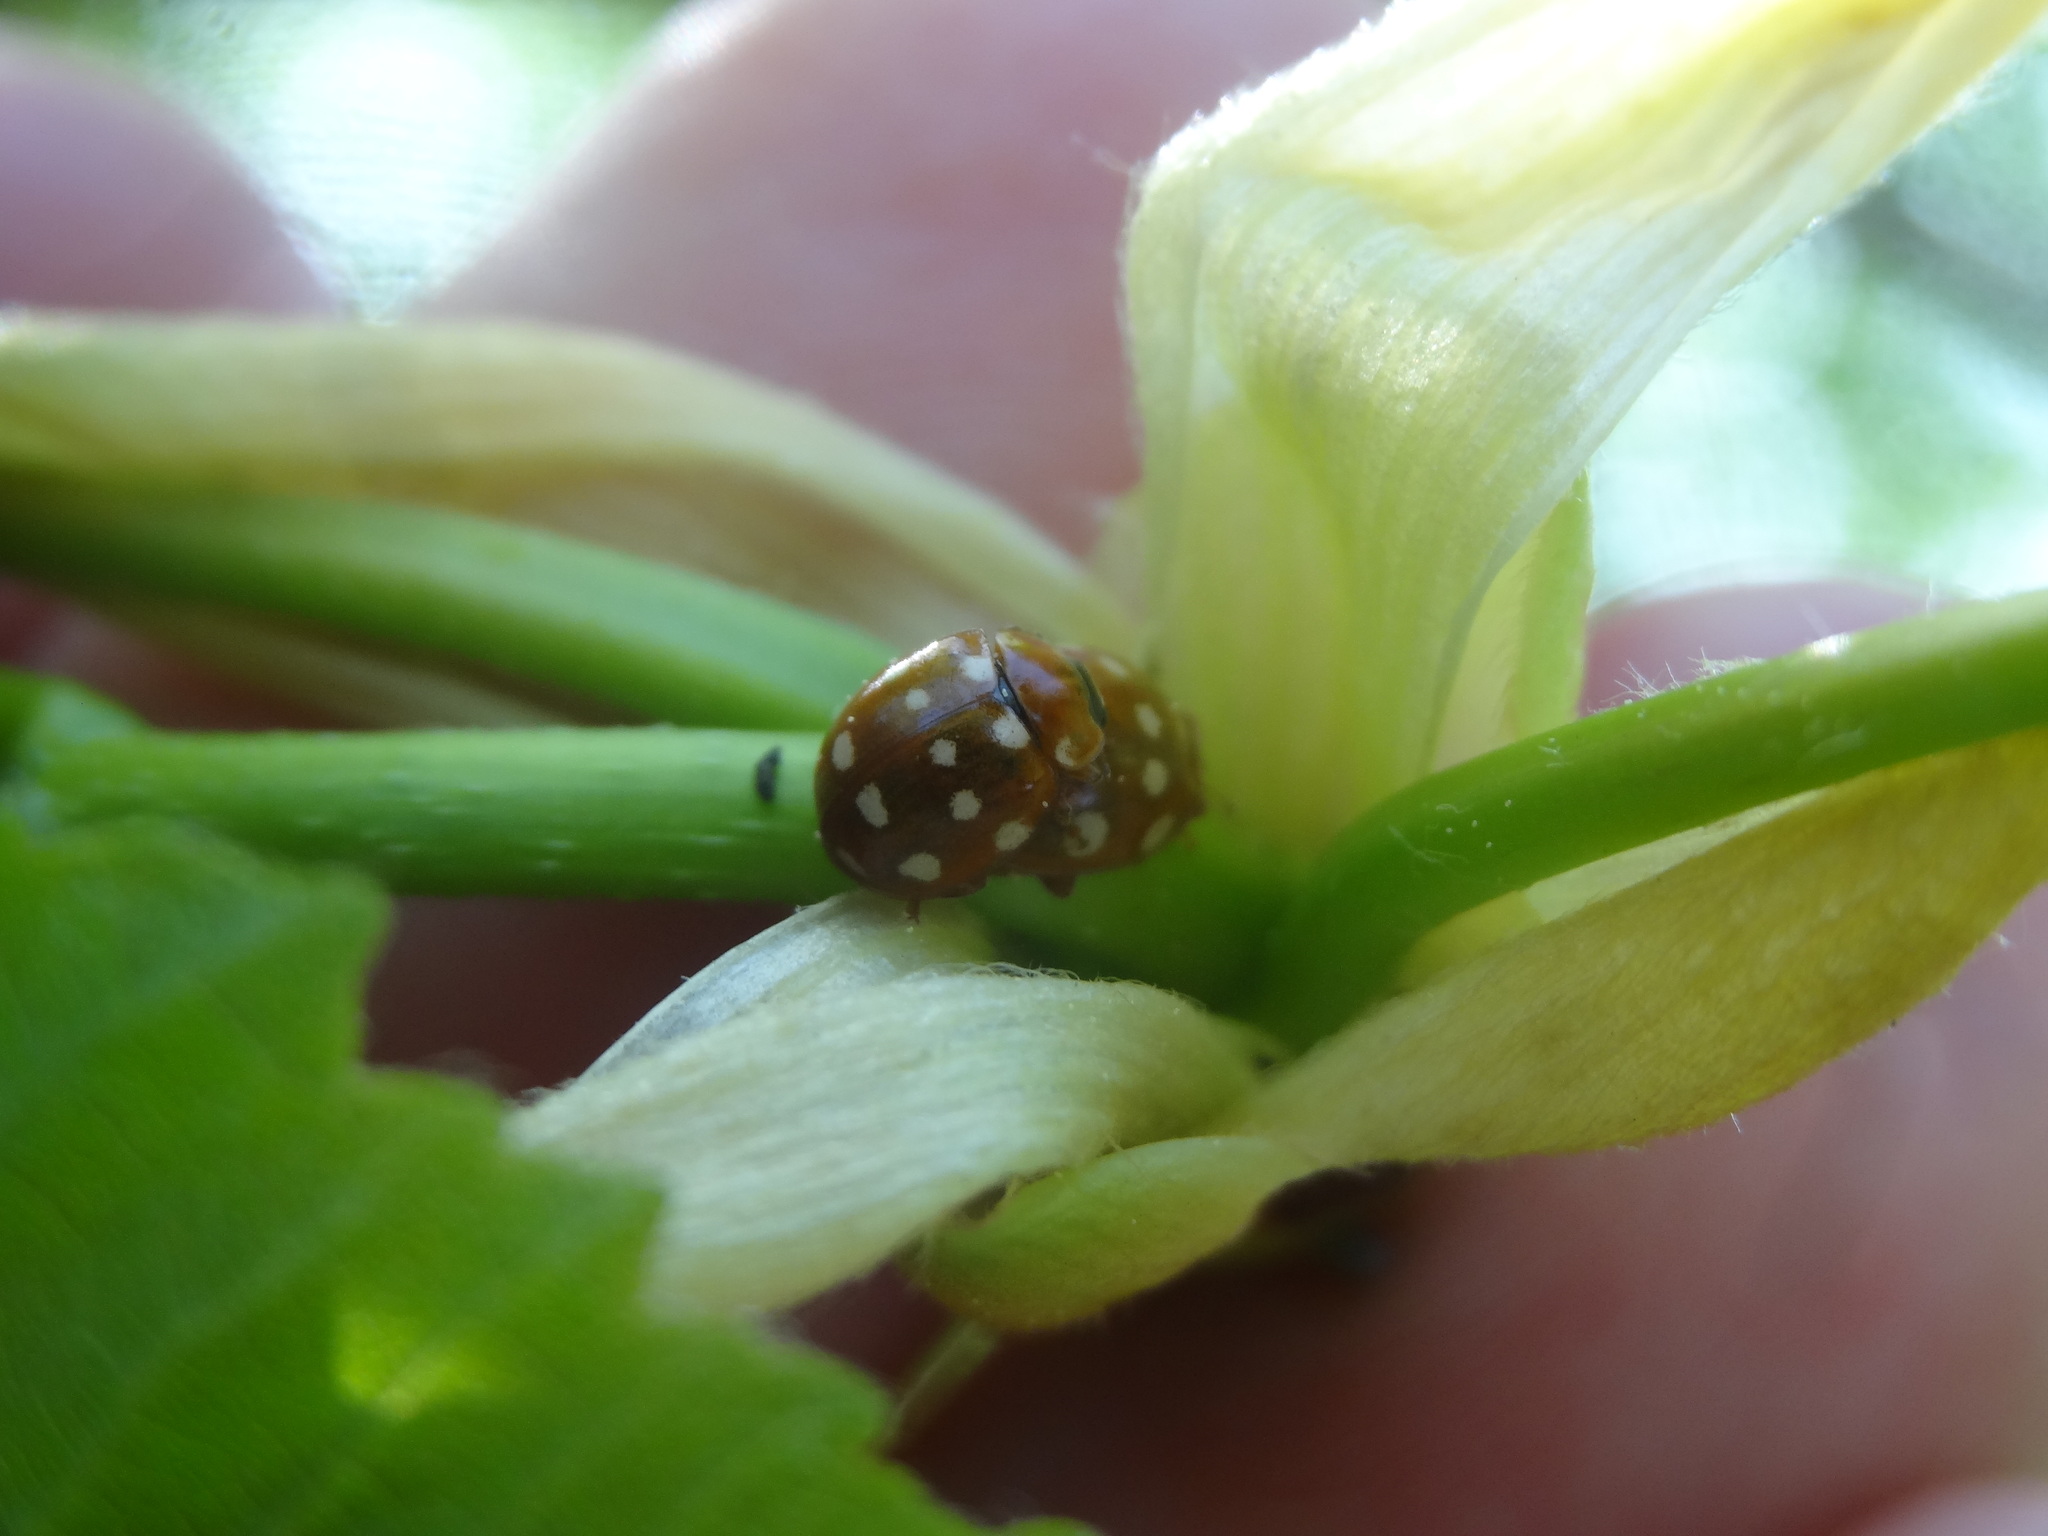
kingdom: Animalia
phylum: Arthropoda
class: Insecta
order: Coleoptera
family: Coccinellidae
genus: Calvia
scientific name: Calvia quatuordecimguttata
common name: Cream-spot ladybird
